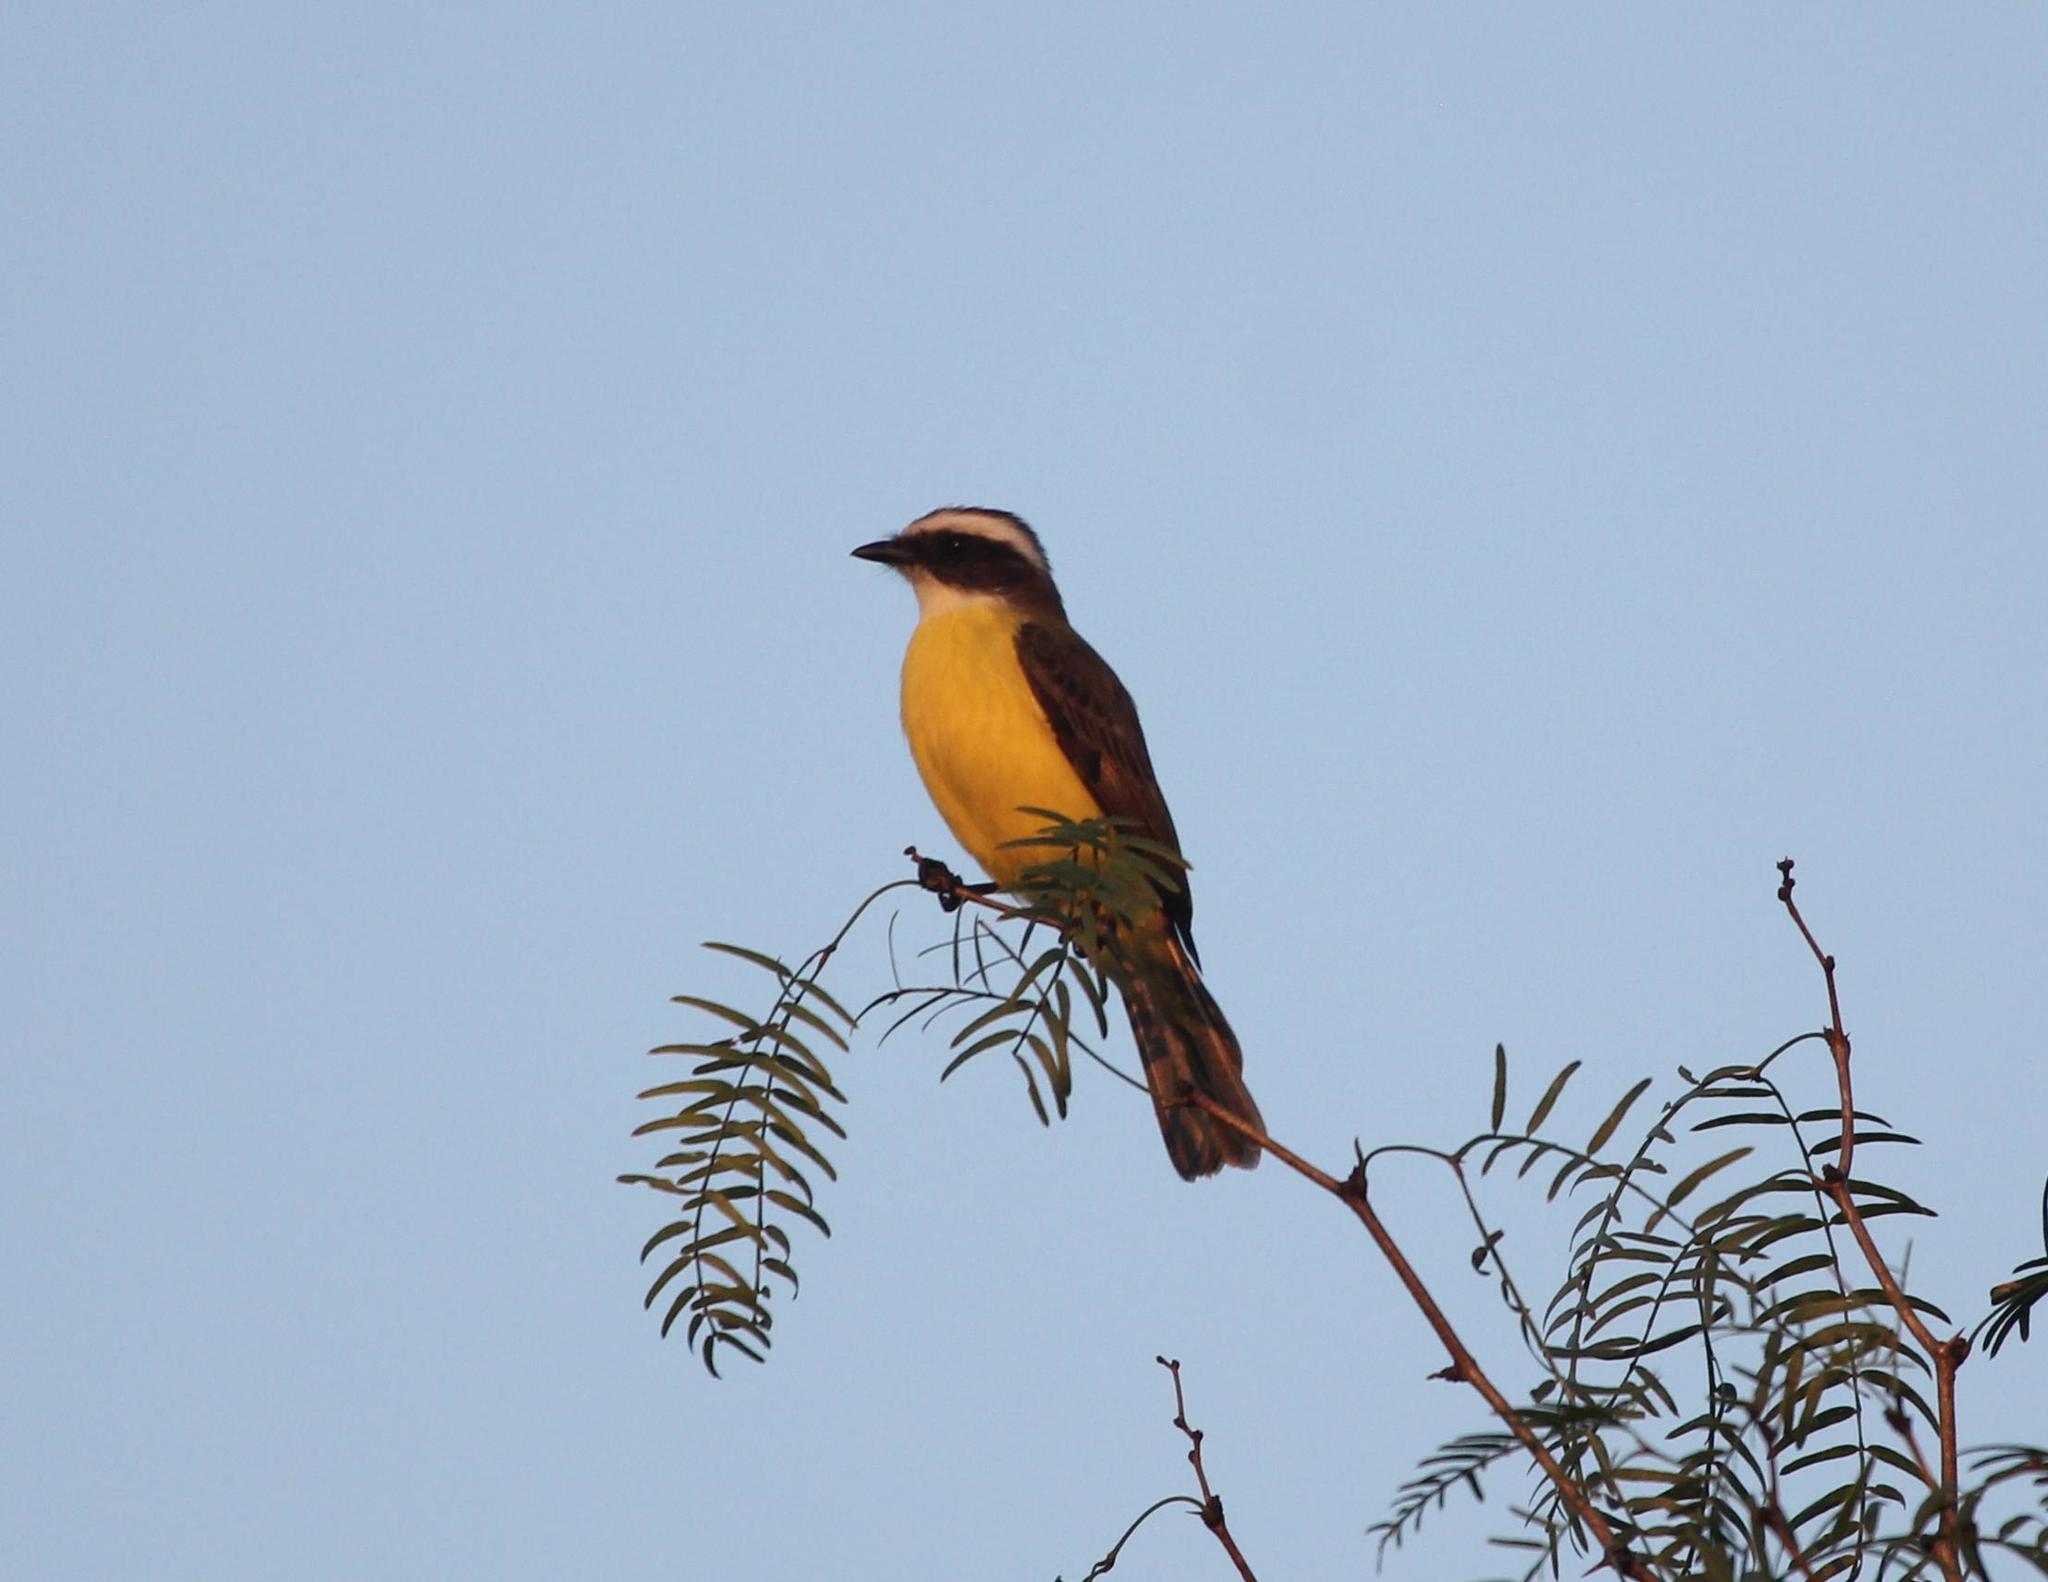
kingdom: Animalia
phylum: Chordata
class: Aves
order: Passeriformes
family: Tyrannidae
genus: Myiozetetes
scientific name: Myiozetetes similis
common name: Social flycatcher
